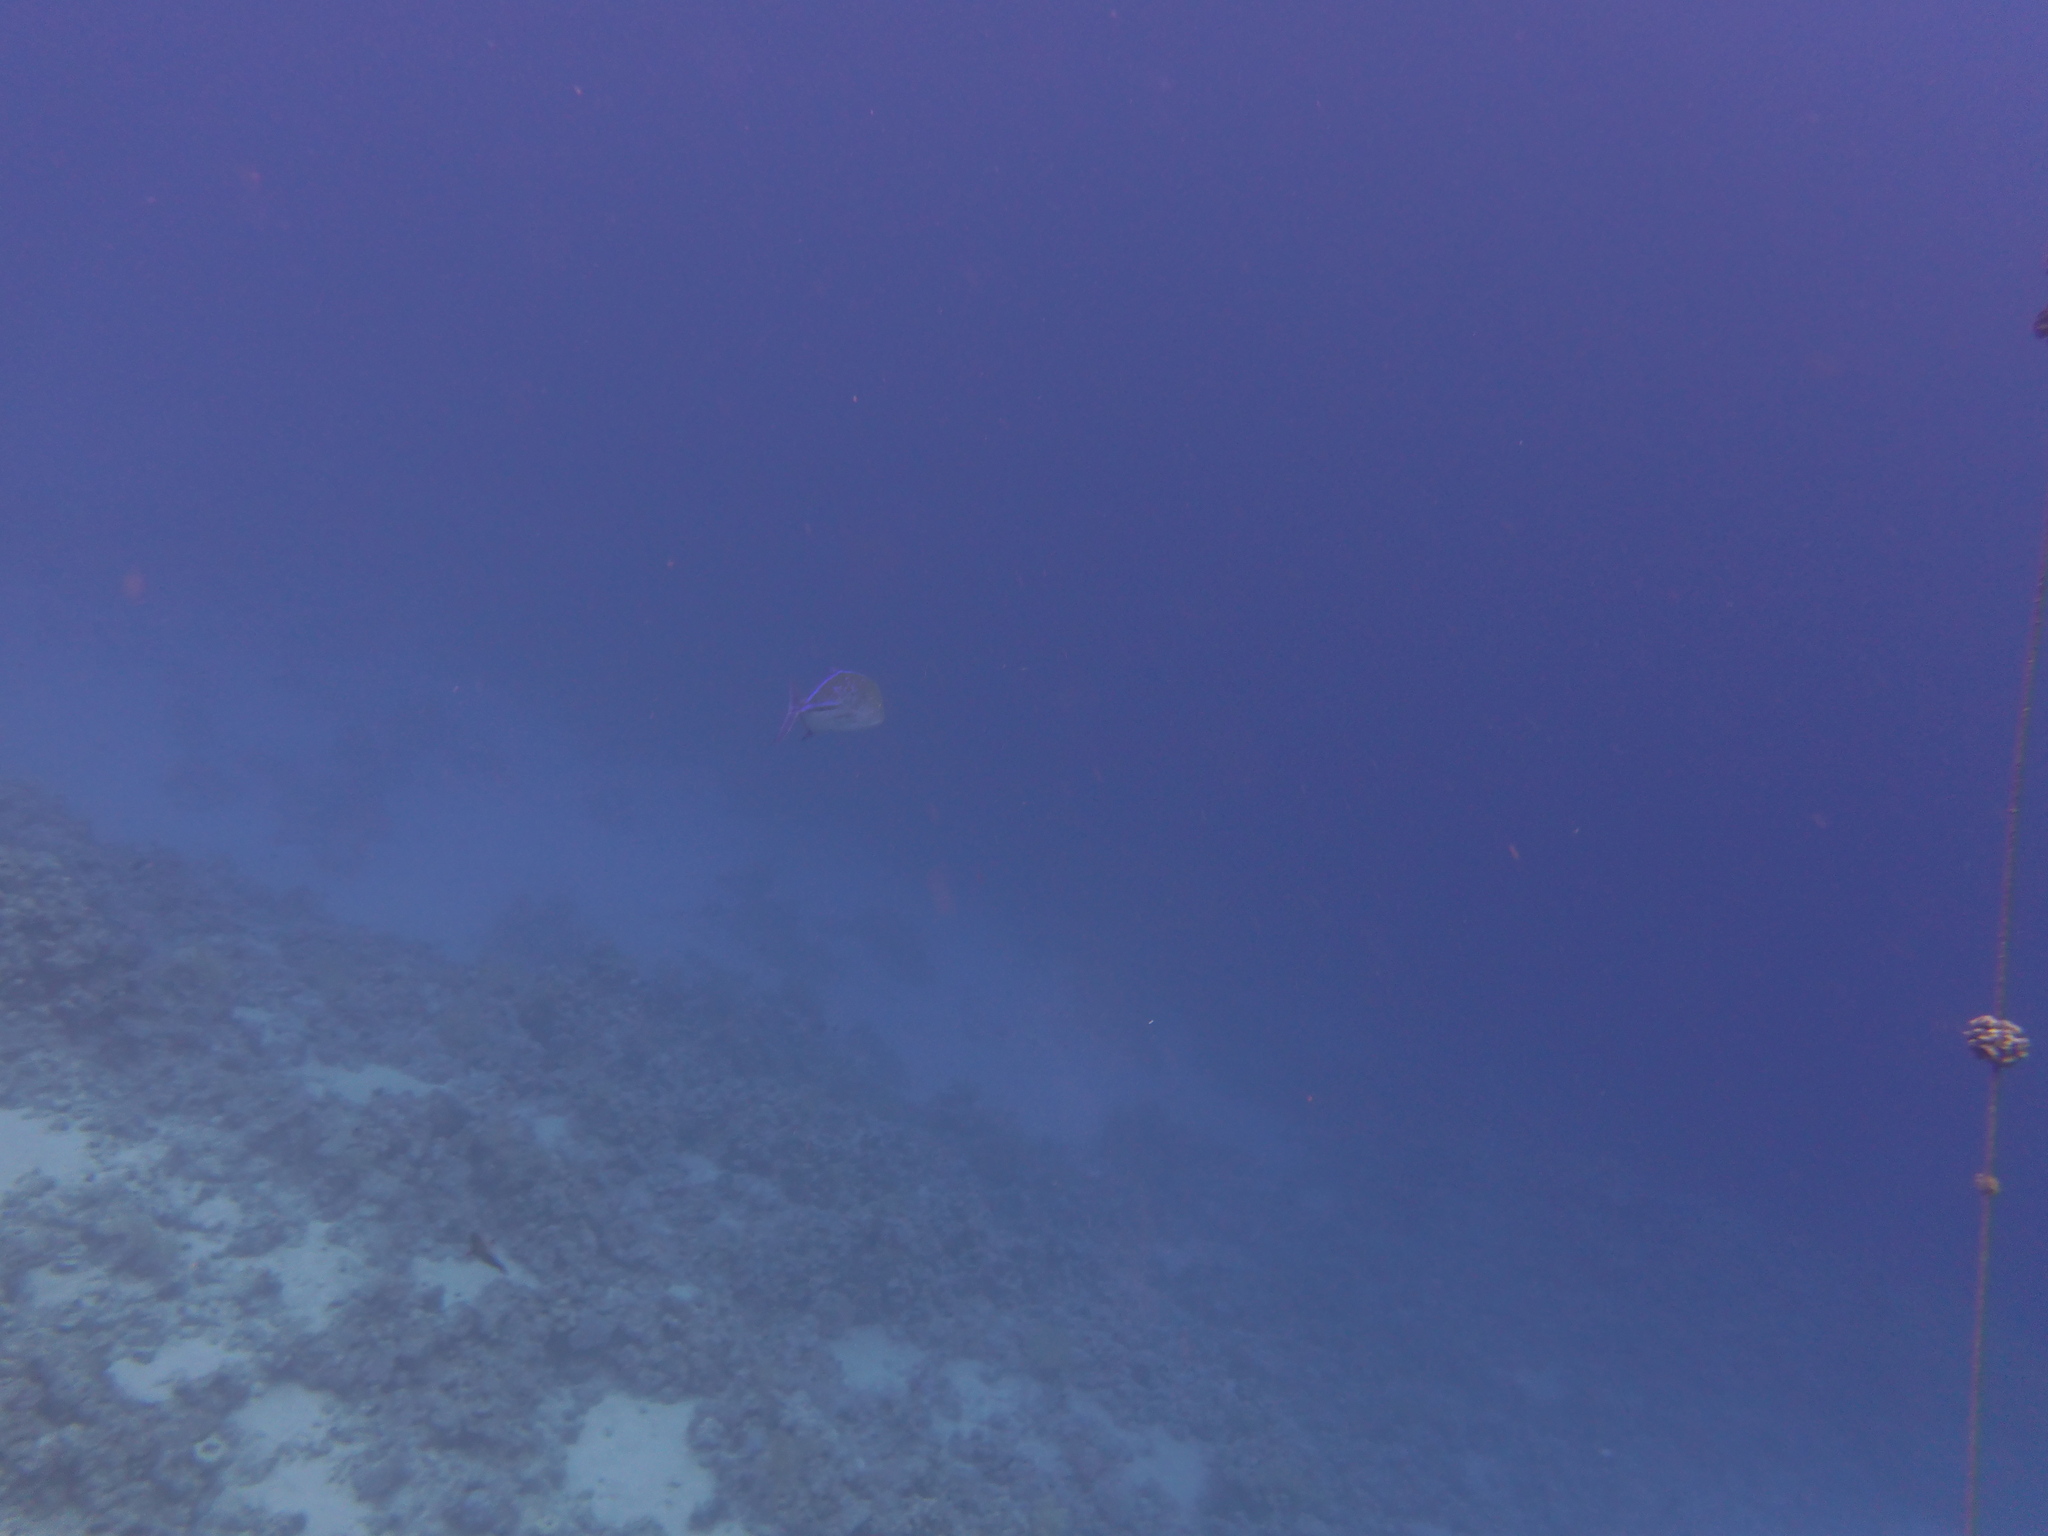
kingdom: Animalia
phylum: Chordata
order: Perciformes
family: Carangidae
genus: Caranx
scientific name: Caranx melampygus
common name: Bluefin trevally
